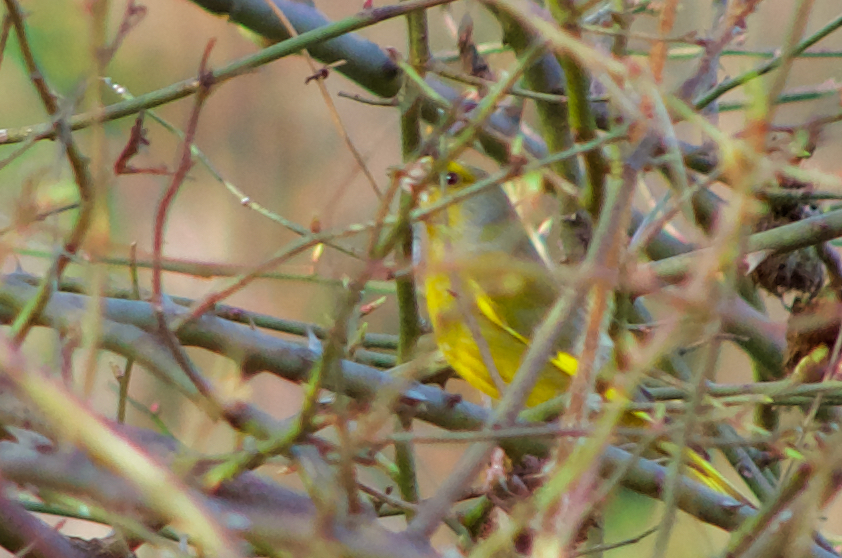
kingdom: Plantae
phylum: Tracheophyta
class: Liliopsida
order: Poales
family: Poaceae
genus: Chloris
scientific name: Chloris chloris
